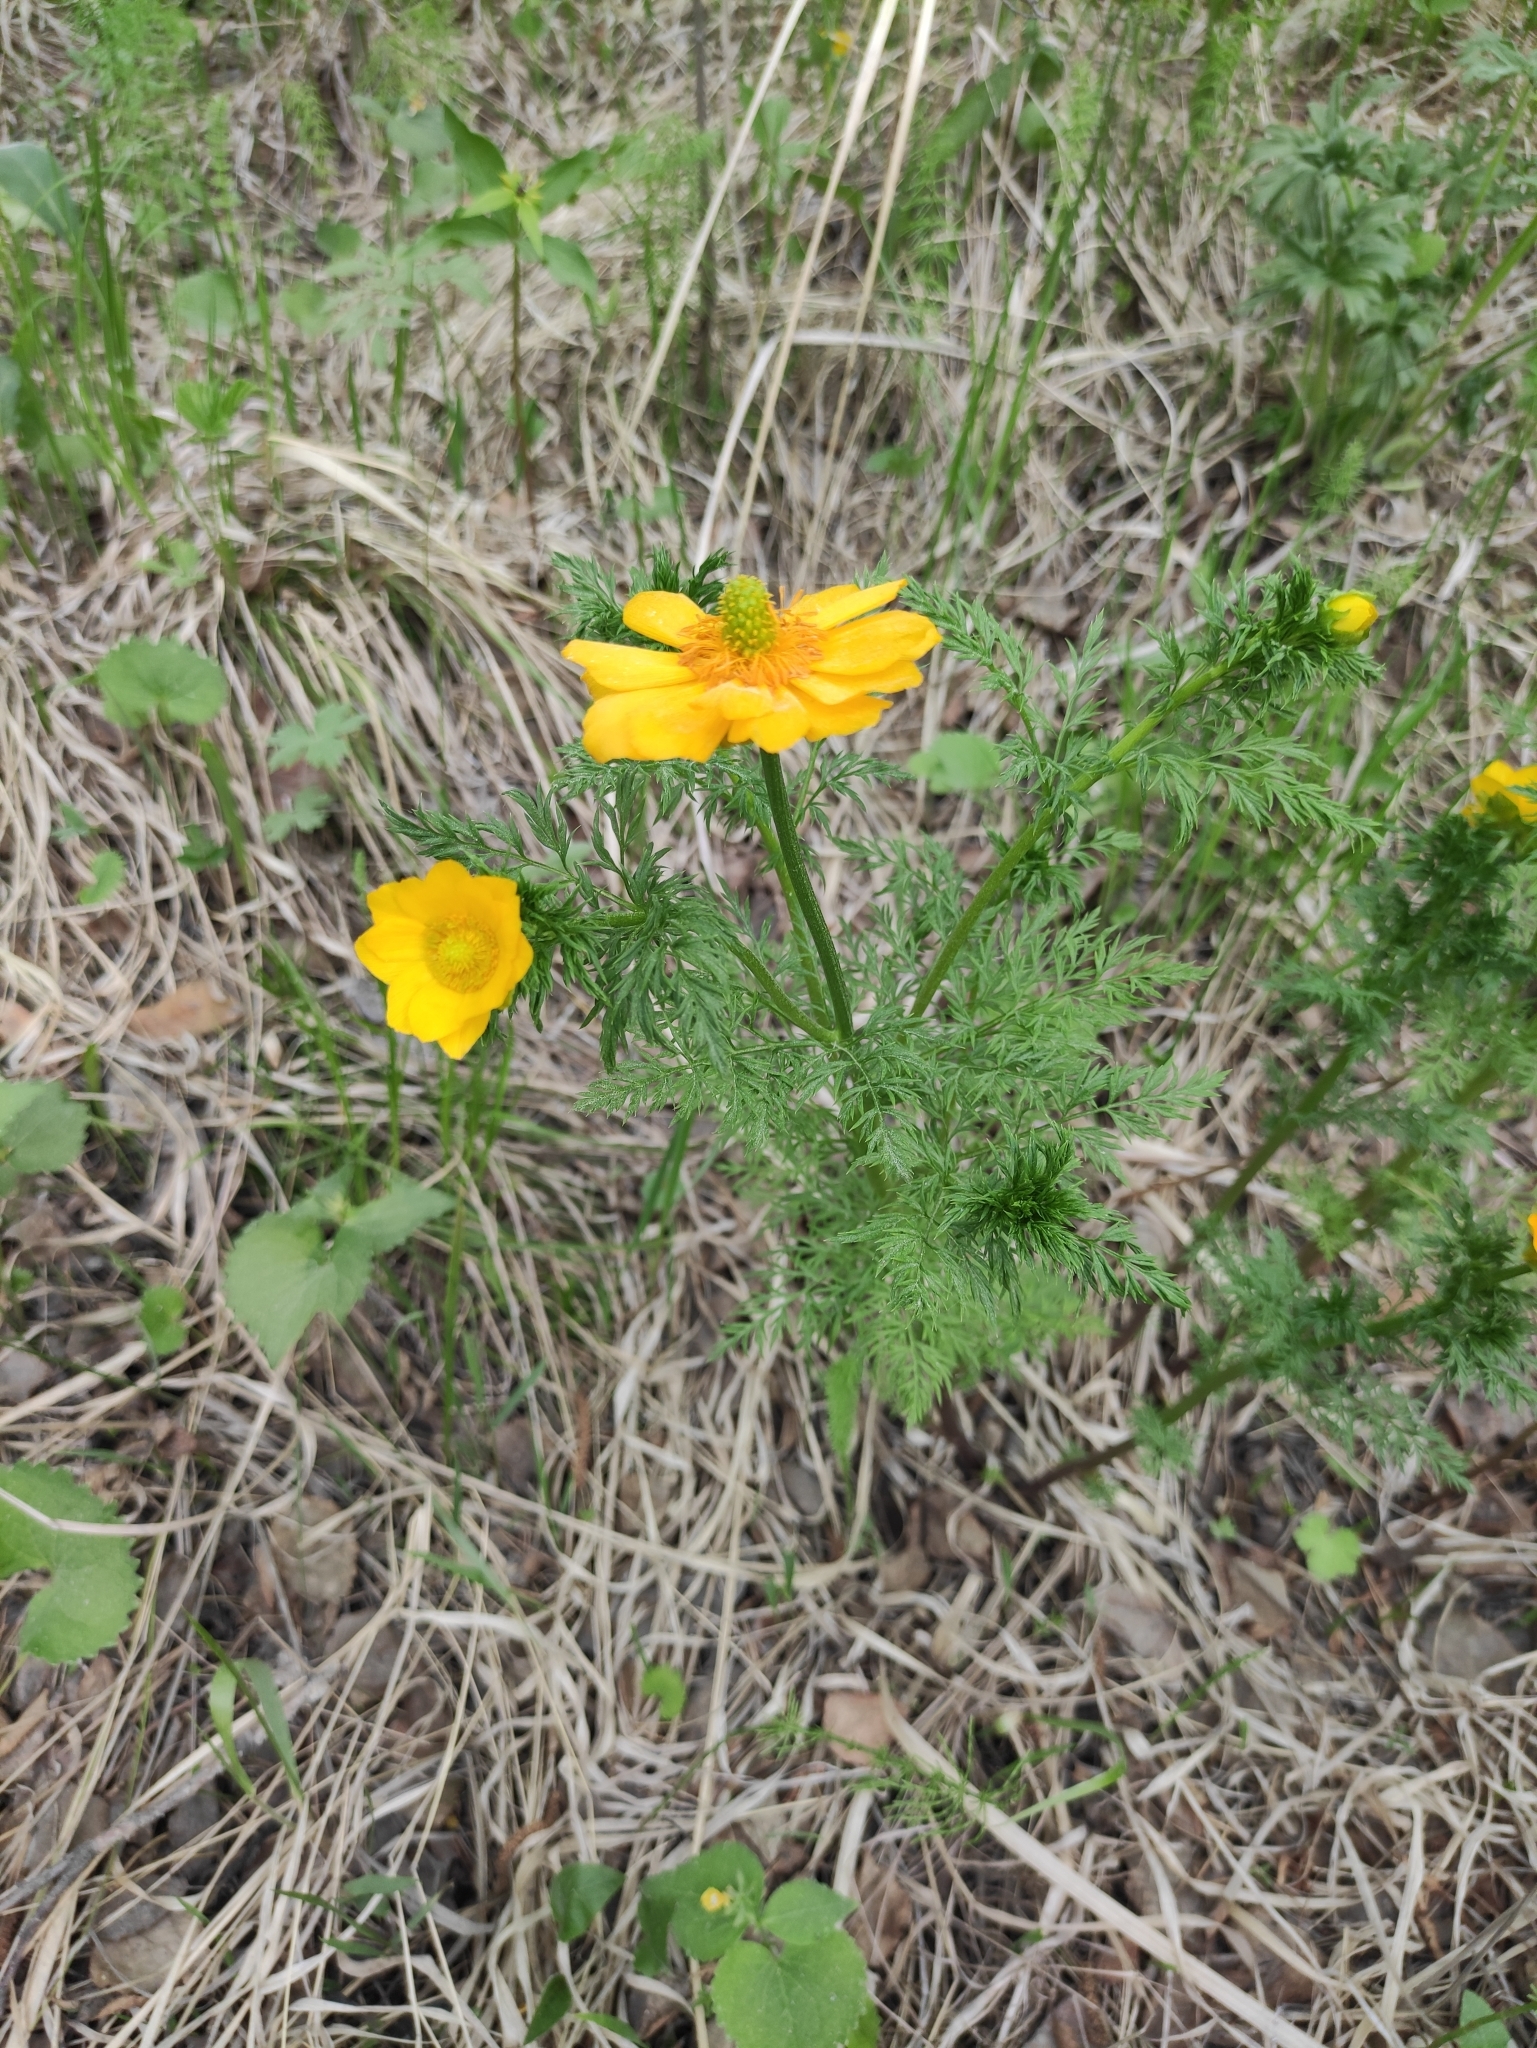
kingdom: Plantae
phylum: Tracheophyta
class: Magnoliopsida
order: Ranunculales
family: Ranunculaceae
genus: Adonis
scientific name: Adonis
